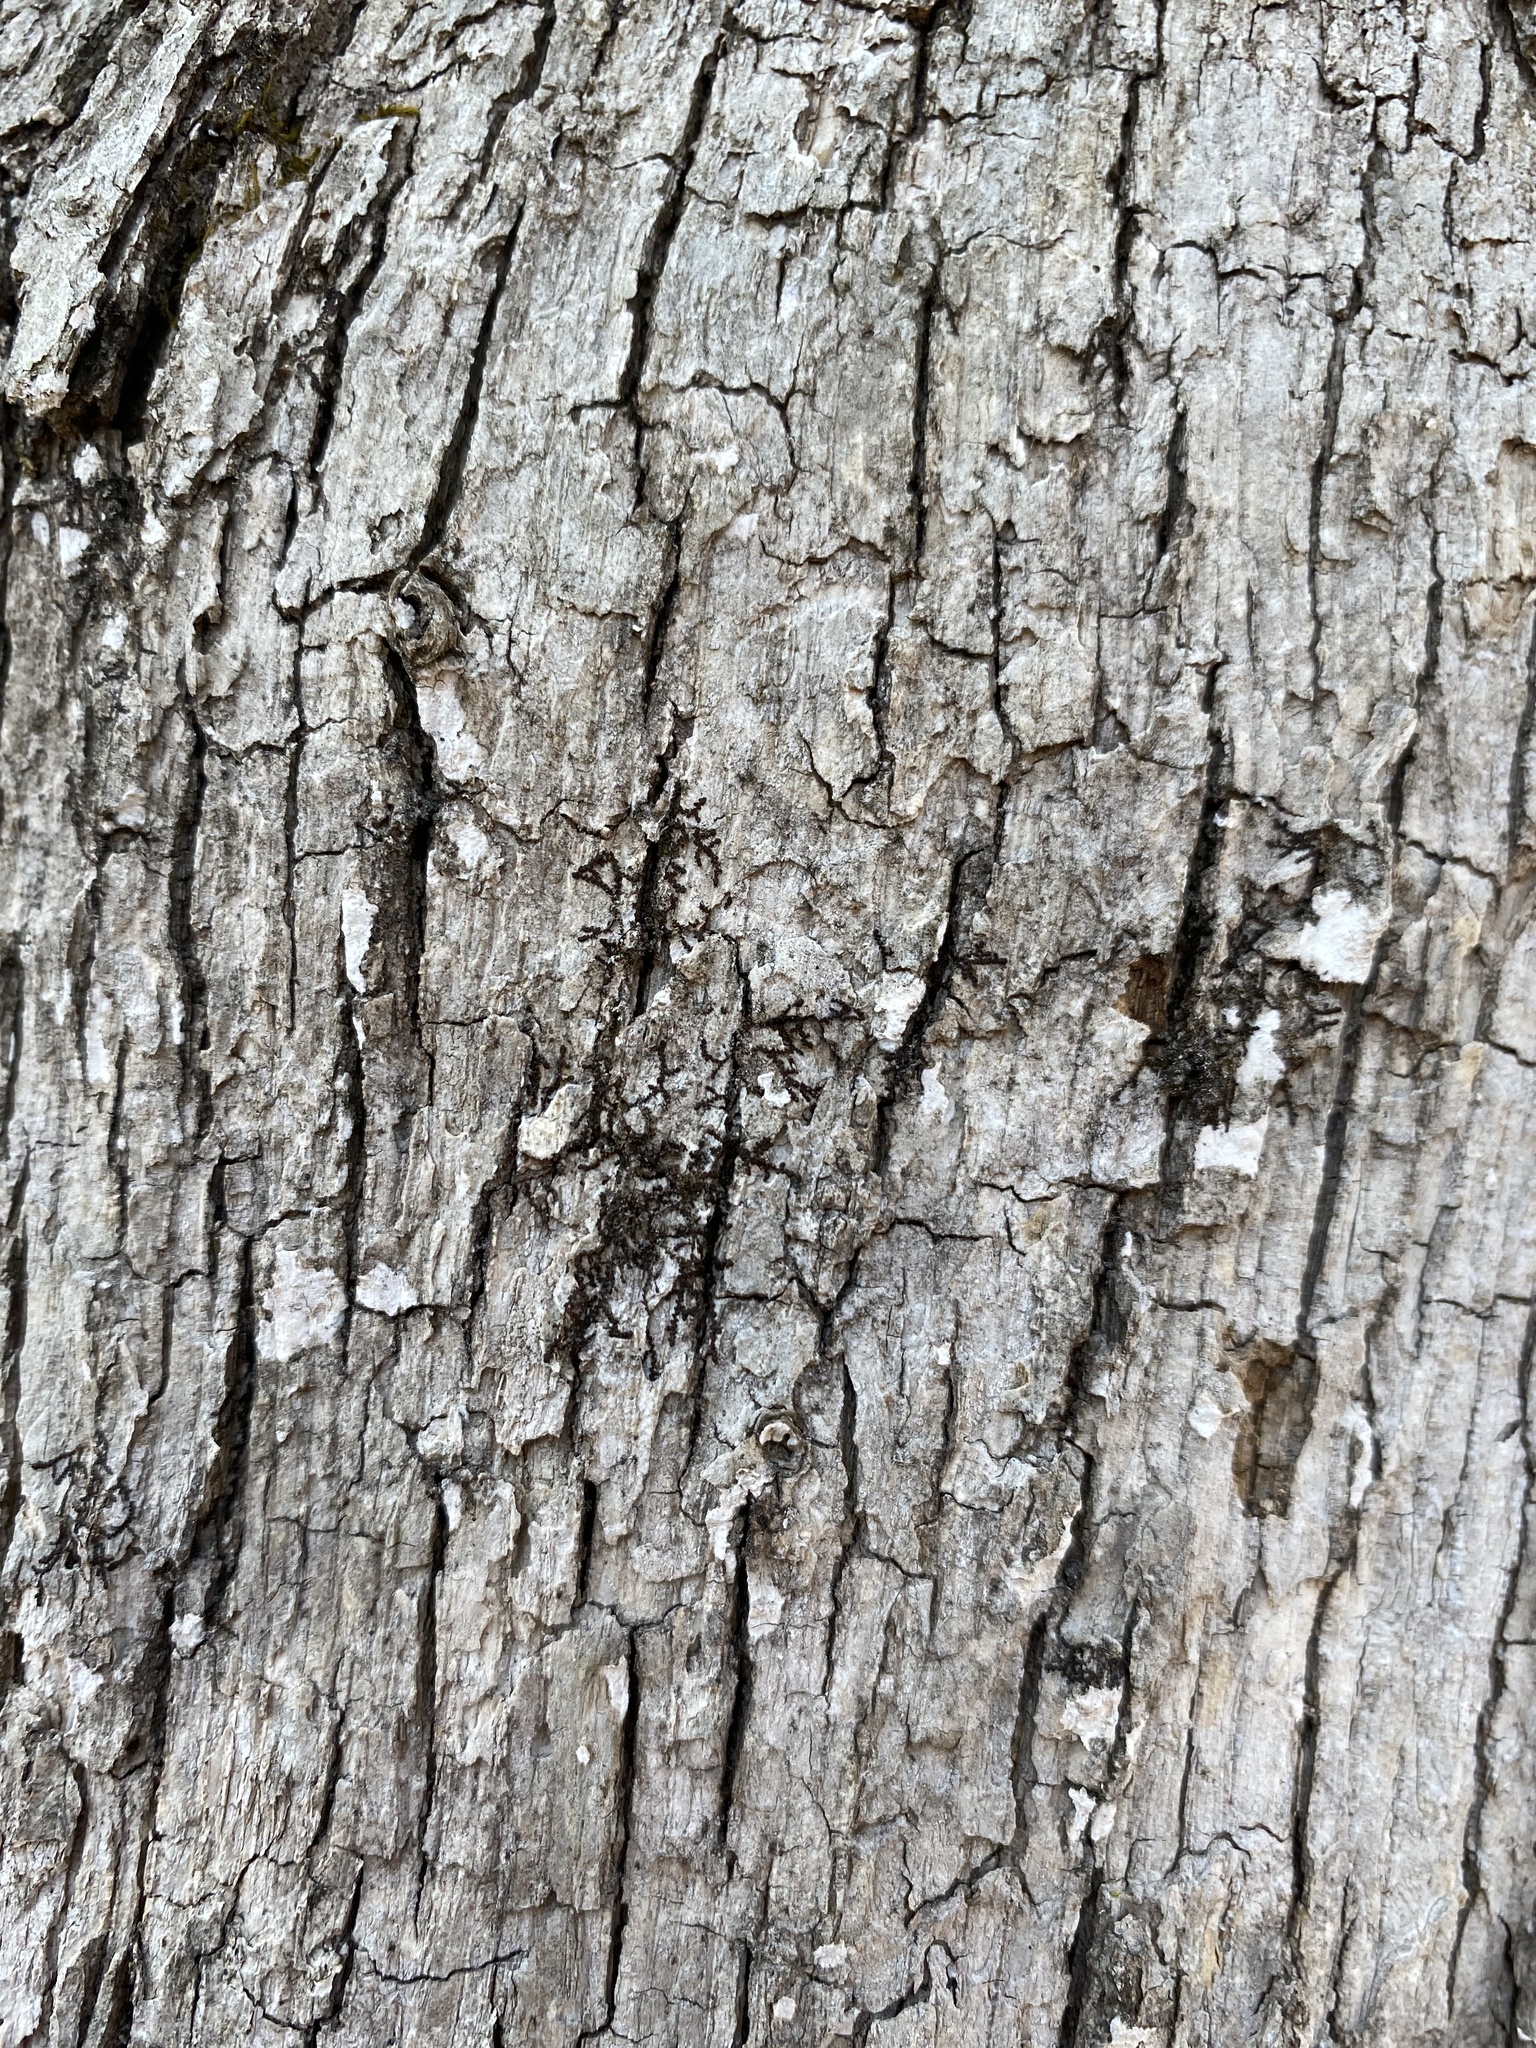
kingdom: Plantae
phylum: Marchantiophyta
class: Jungermanniopsida
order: Porellales
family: Frullaniaceae
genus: Frullania
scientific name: Frullania eboracensis
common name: New york scalewort
